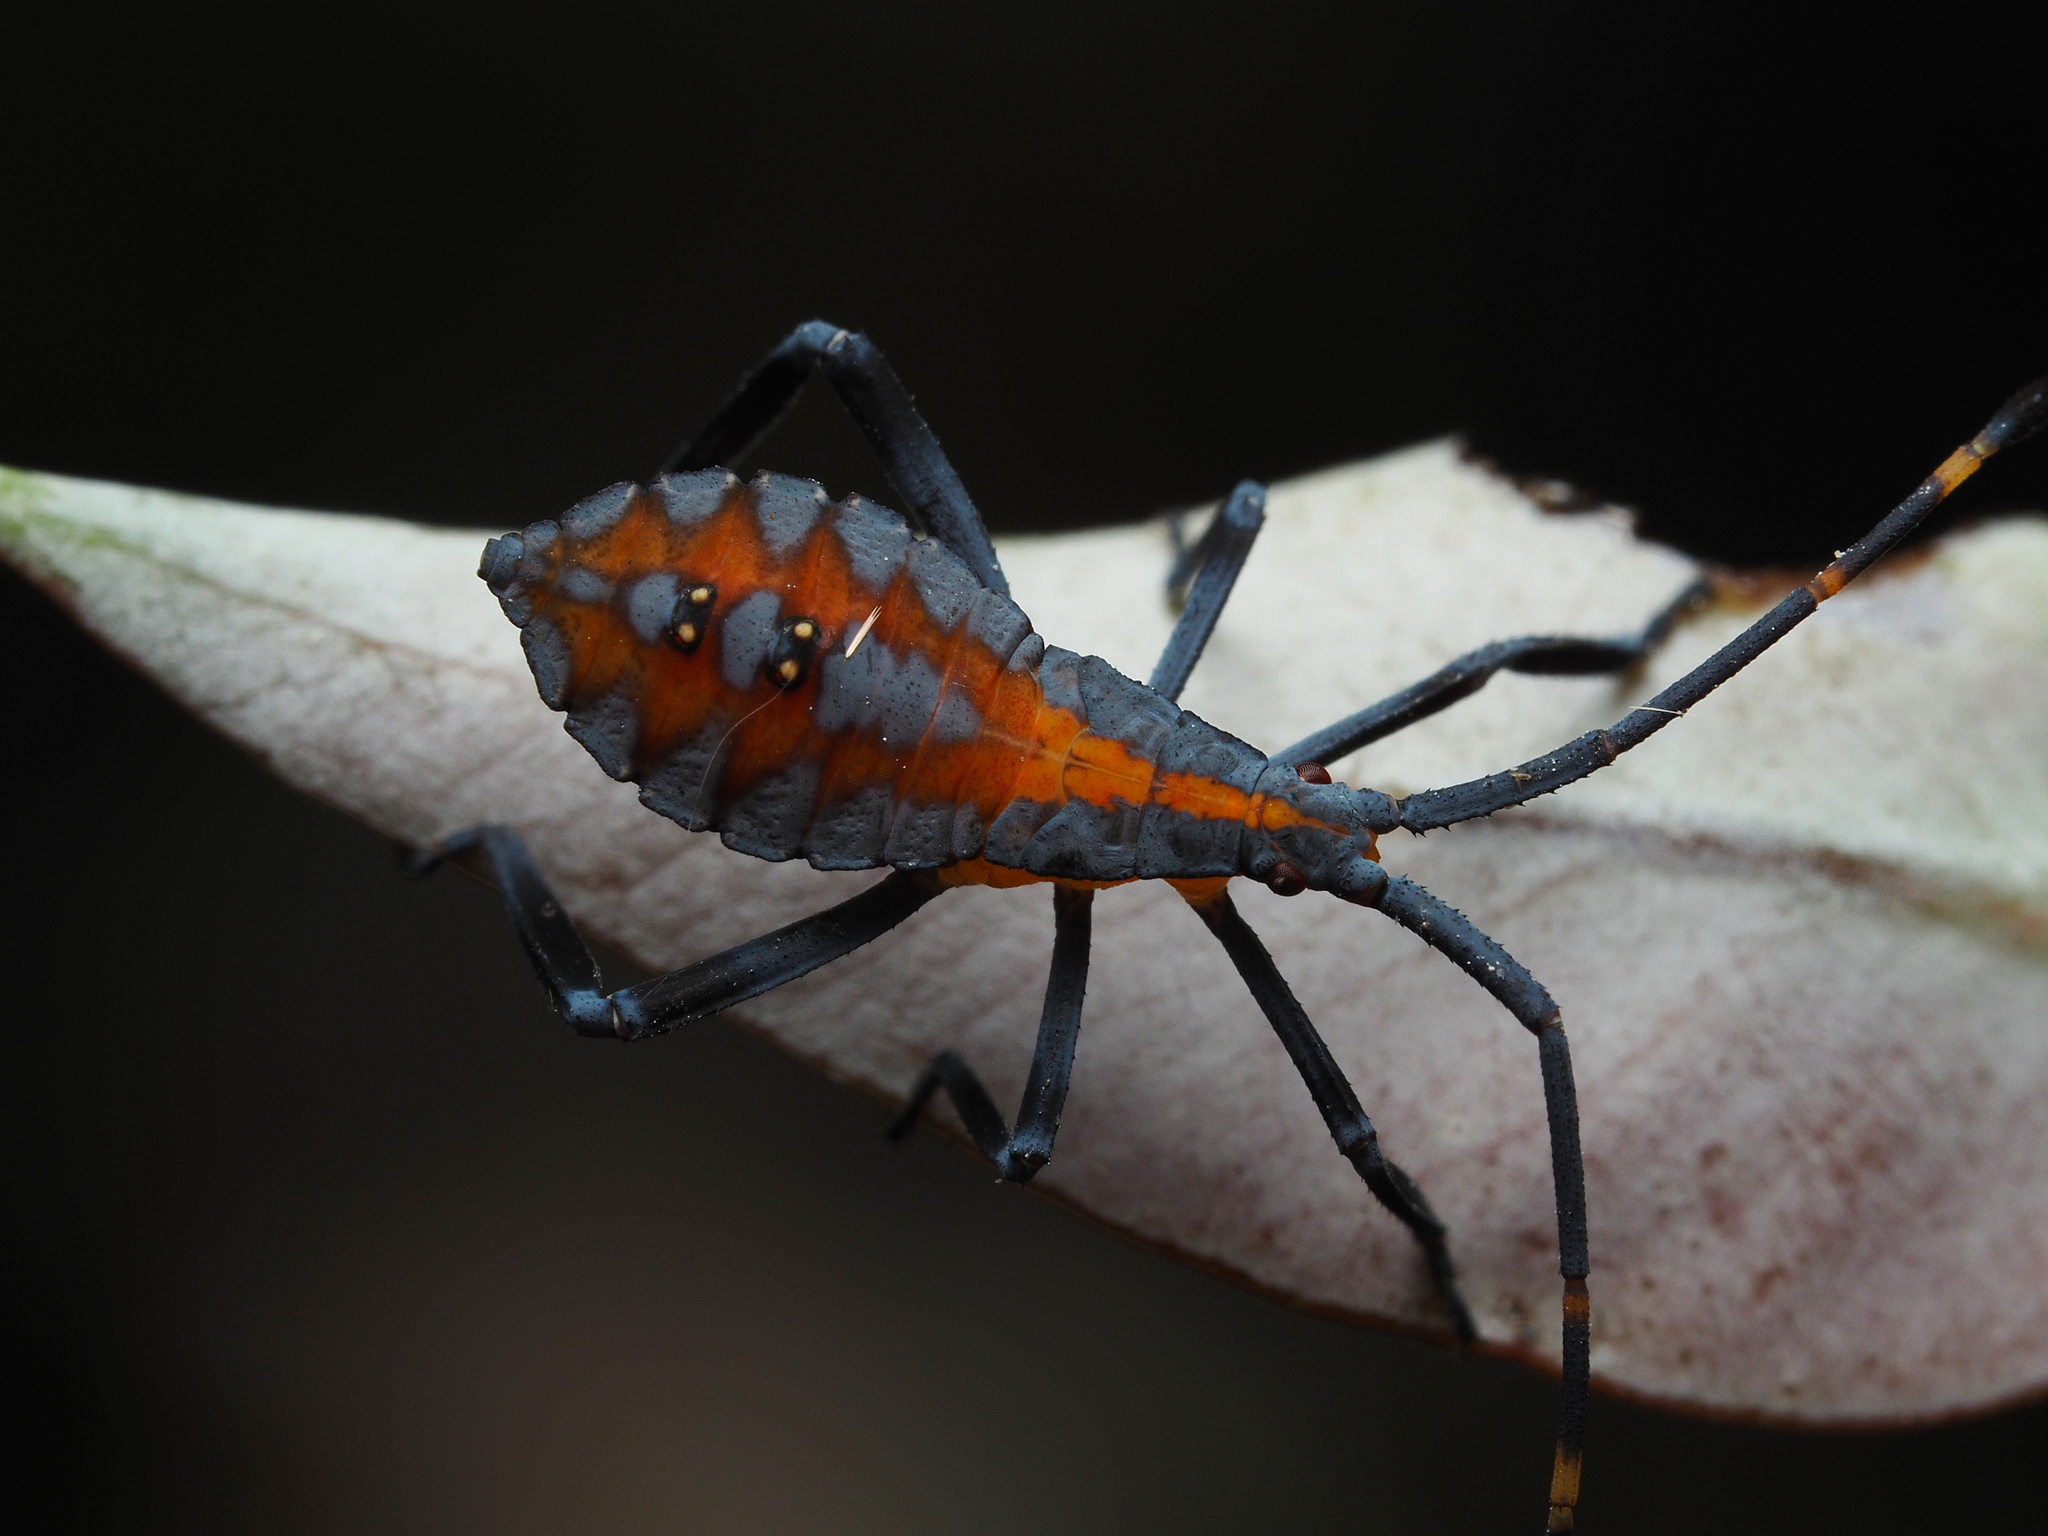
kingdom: Animalia
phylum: Arthropoda
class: Insecta
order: Hemiptera
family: Coreidae
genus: Amorbus
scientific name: Amorbus rubiginosus
